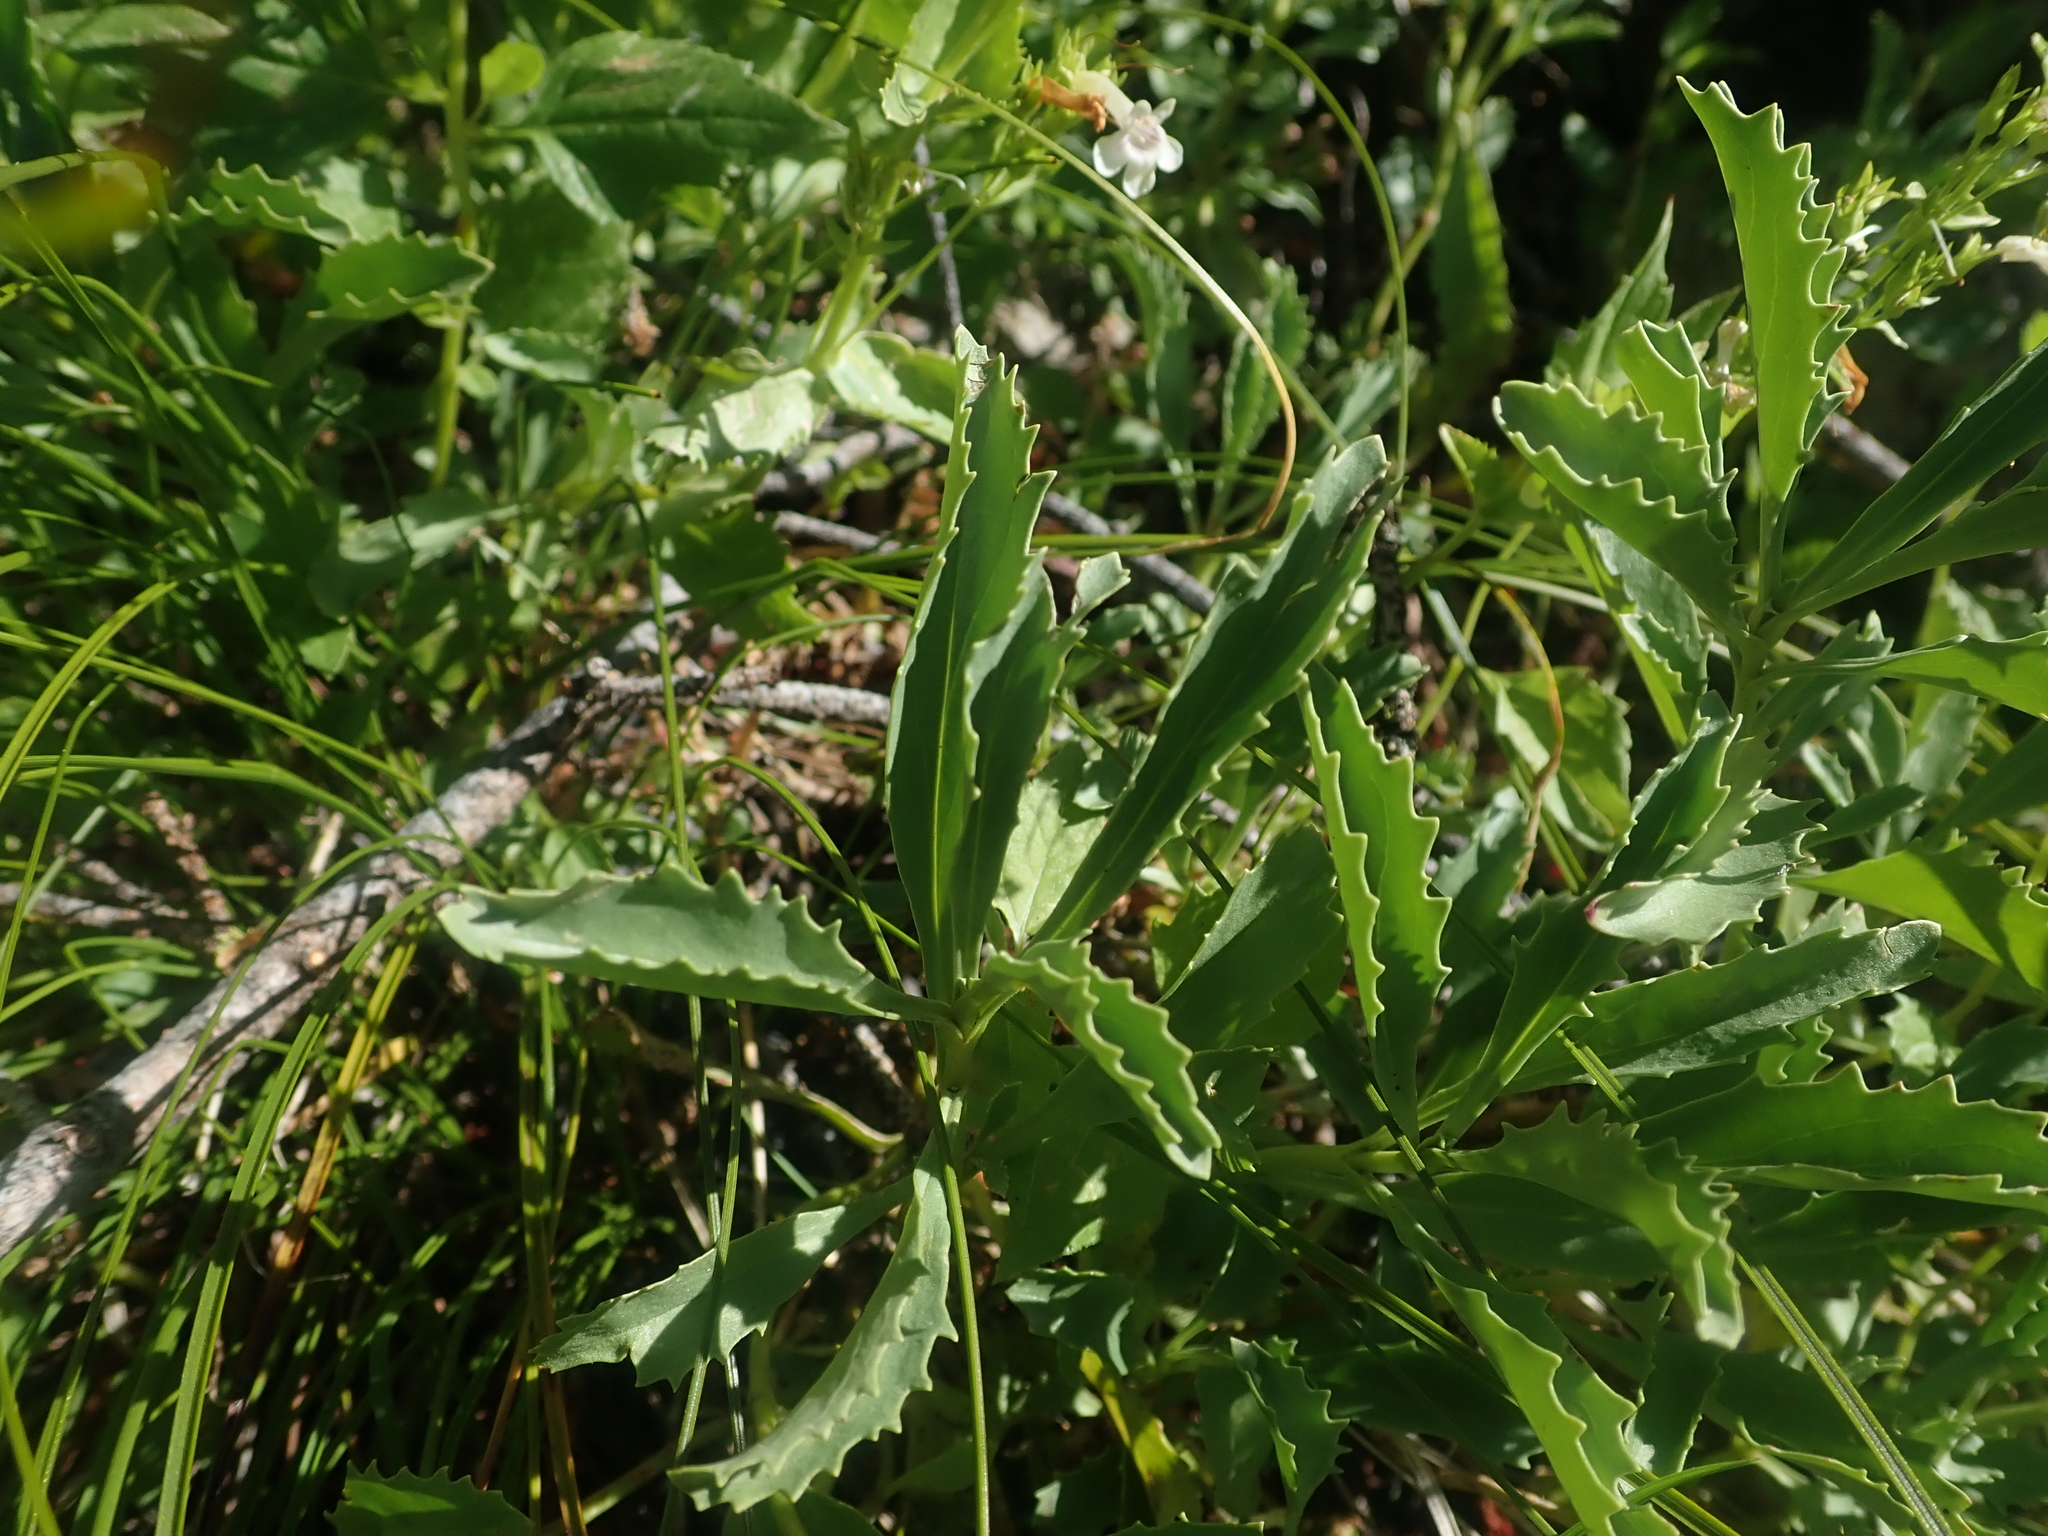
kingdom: Plantae
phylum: Tracheophyta
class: Magnoliopsida
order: Lamiales
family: Plantaginaceae
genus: Penstemon
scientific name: Penstemon deustus
